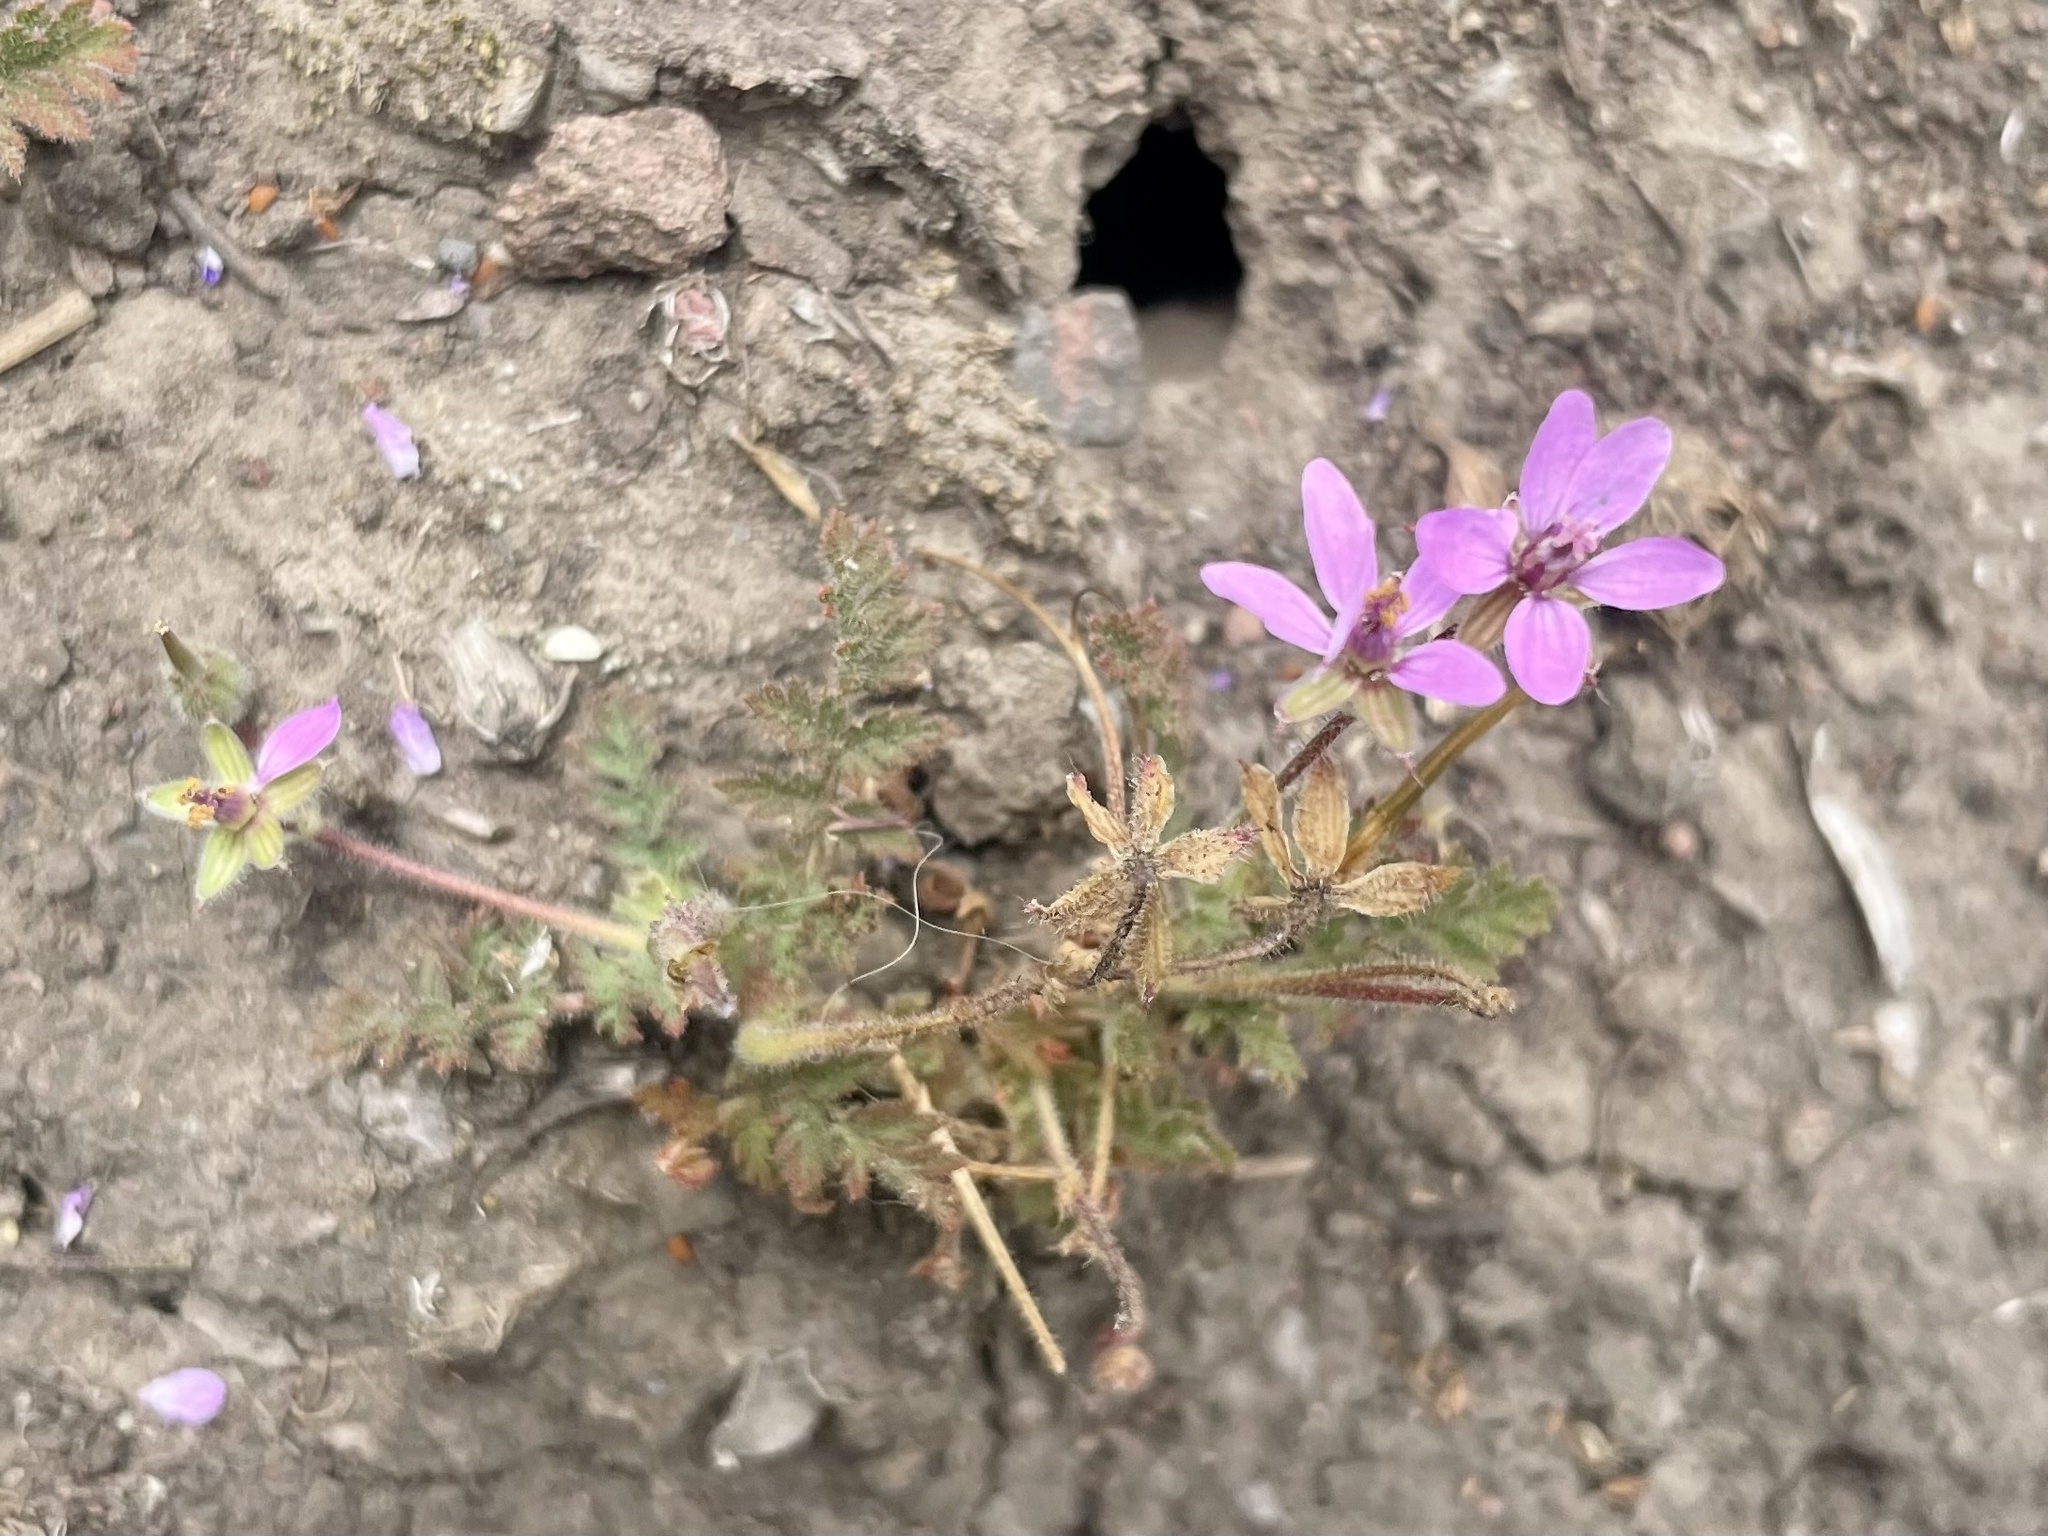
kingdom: Plantae
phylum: Tracheophyta
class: Magnoliopsida
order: Geraniales
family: Geraniaceae
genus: Erodium
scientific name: Erodium cicutarium
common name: Common stork's-bill
